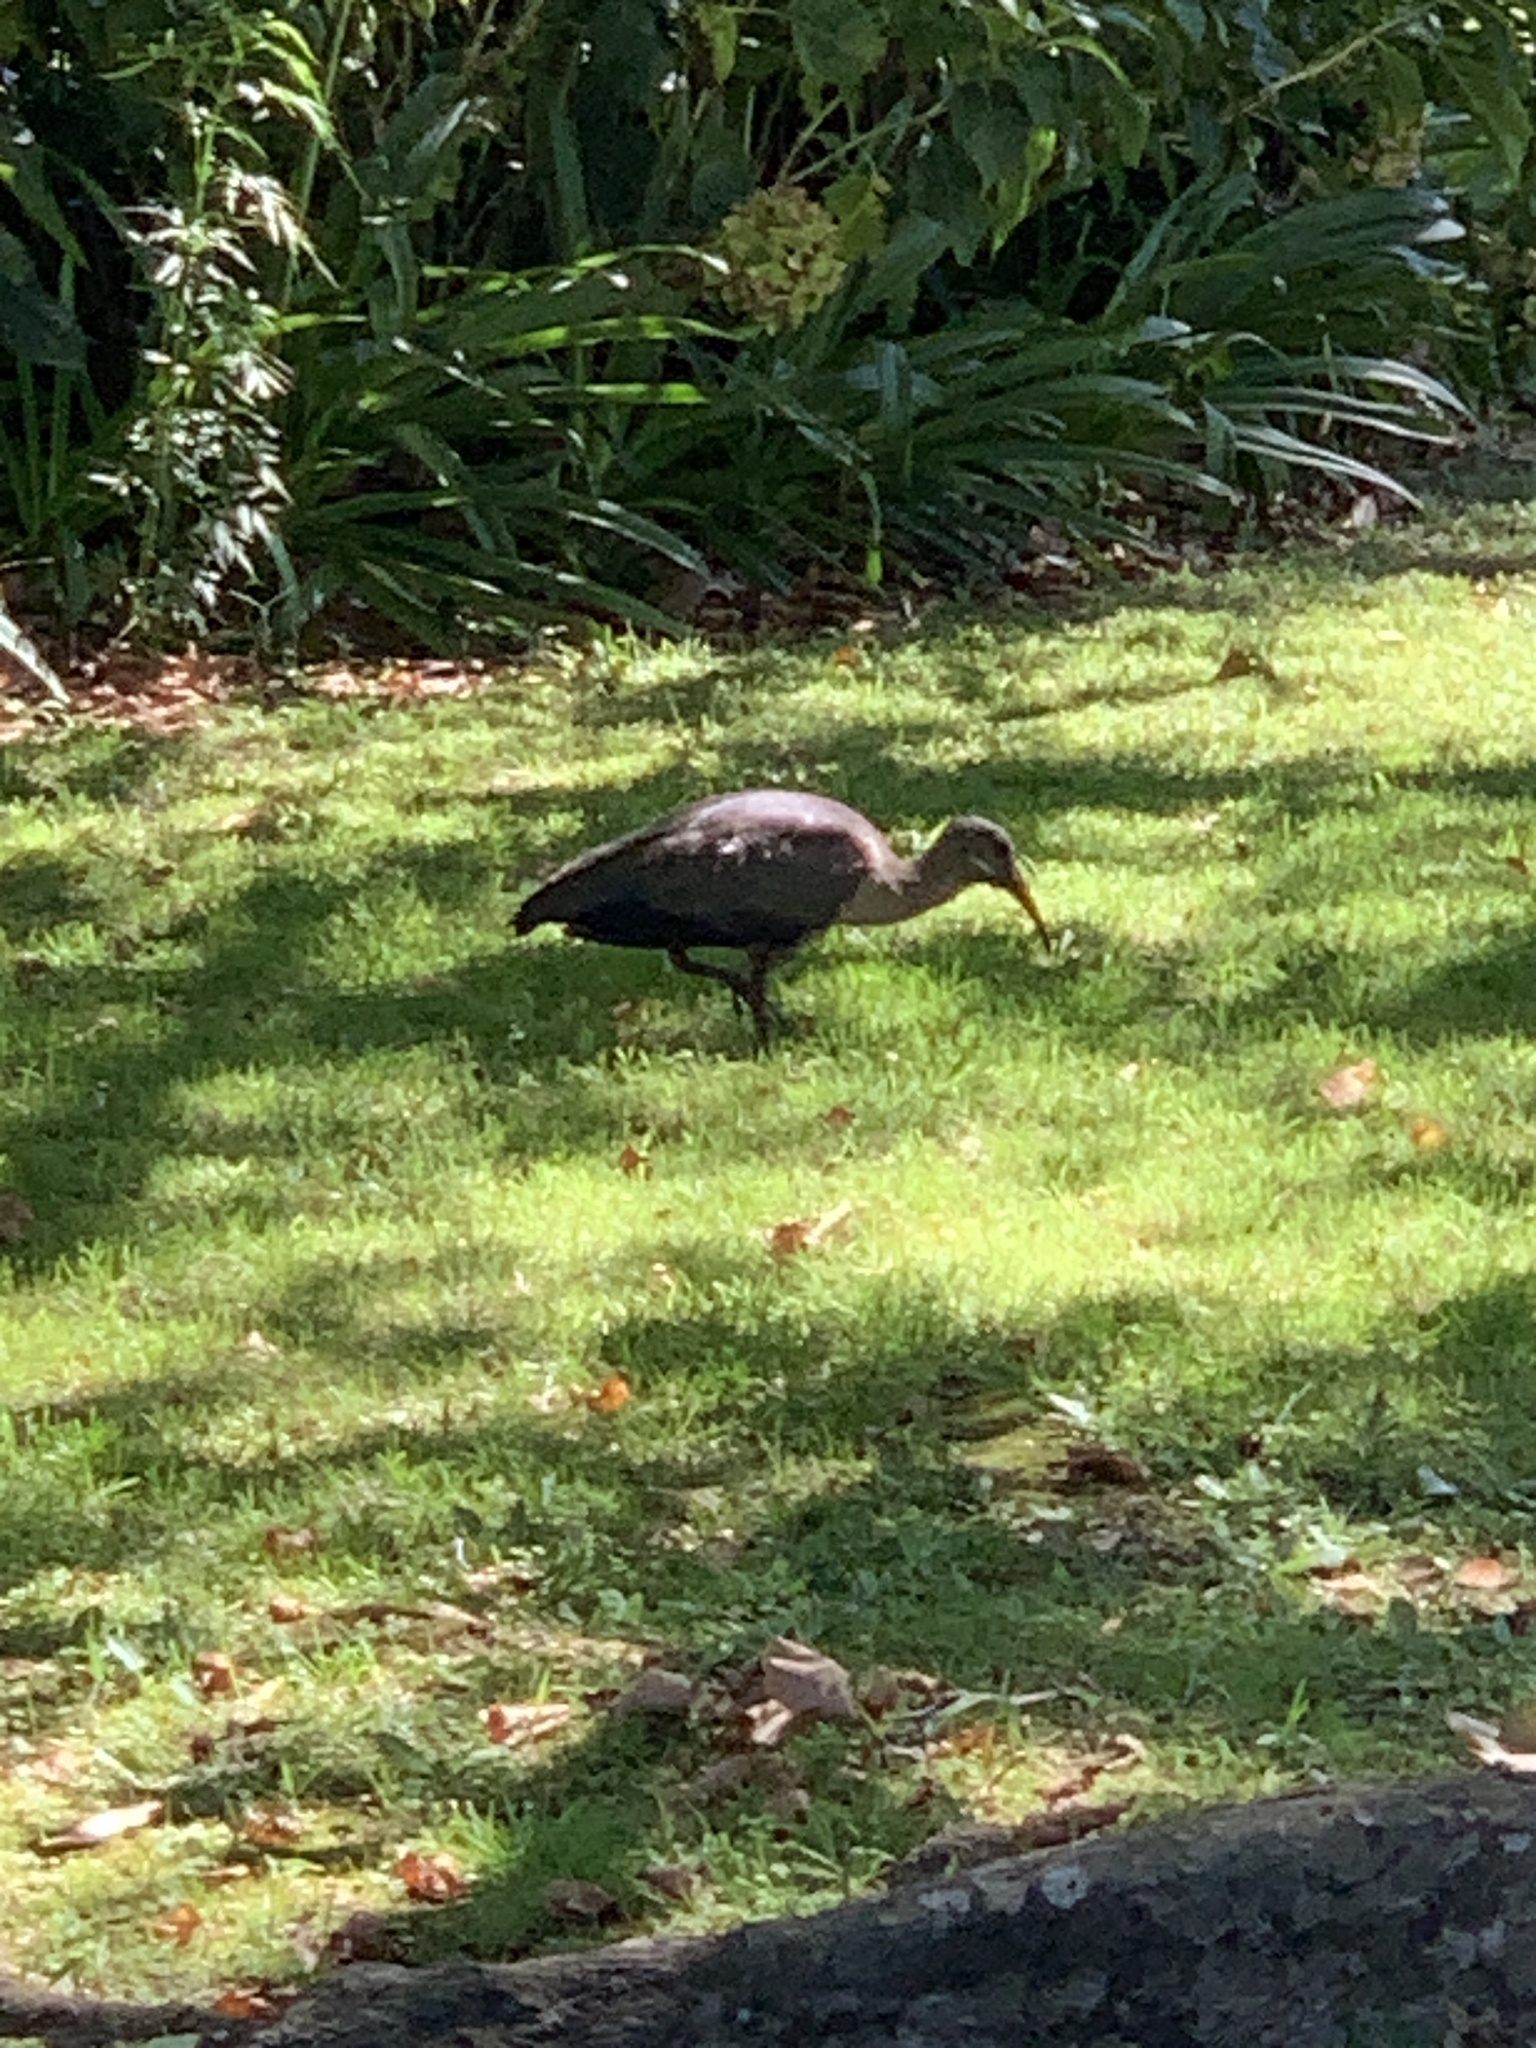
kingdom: Animalia
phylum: Chordata
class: Aves
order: Pelecaniformes
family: Threskiornithidae
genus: Bostrychia
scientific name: Bostrychia hagedash
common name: Hadada ibis
